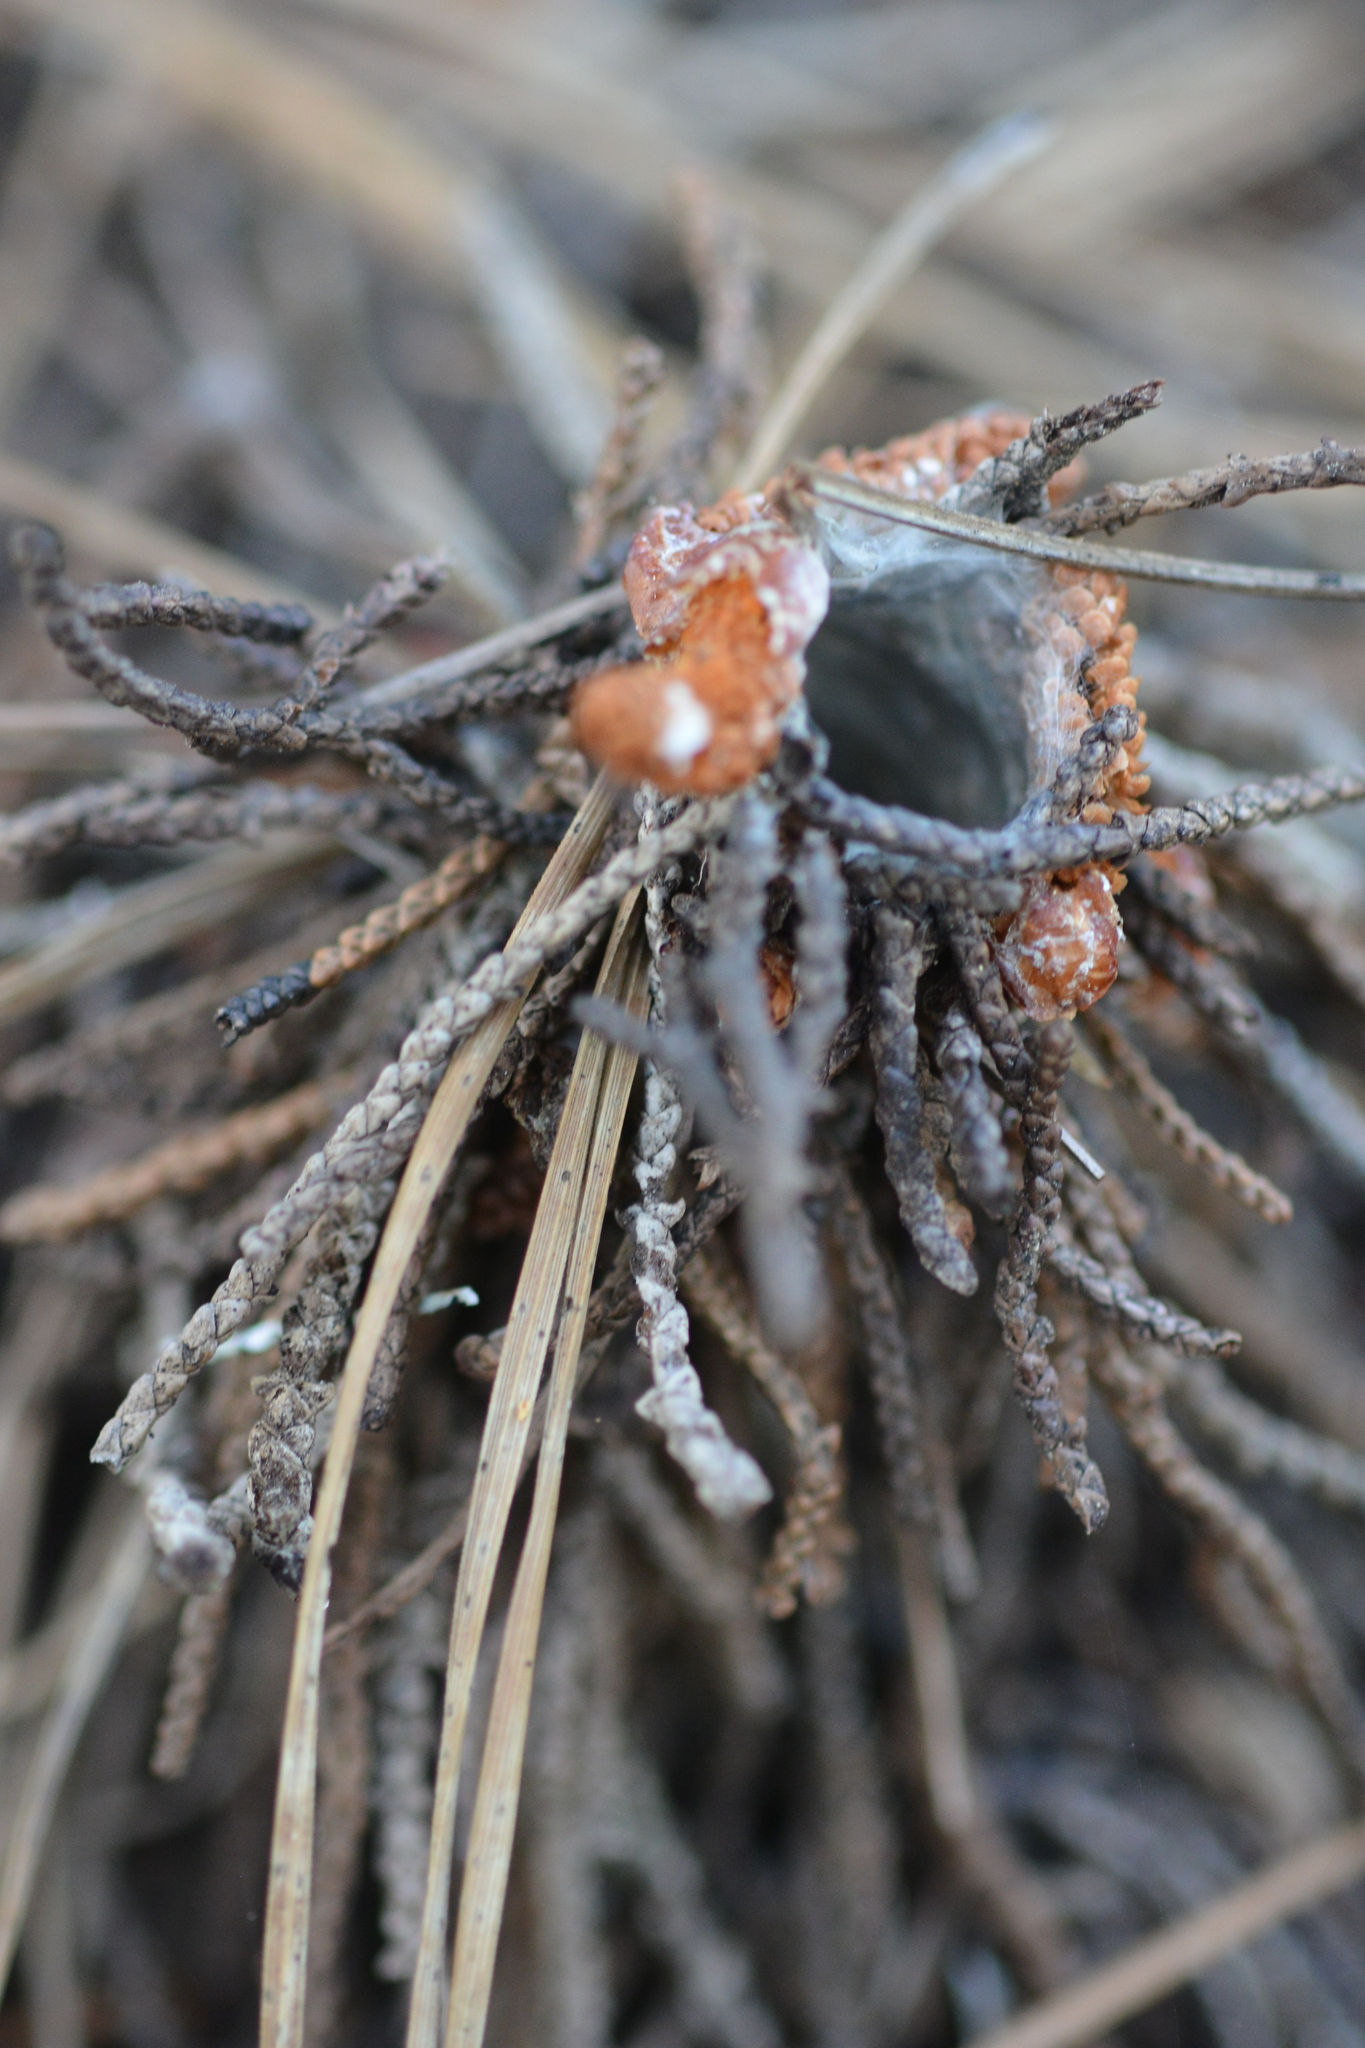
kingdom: Animalia
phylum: Arthropoda
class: Arachnida
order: Araneae
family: Antrodiaetidae
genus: Atypoides
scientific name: Atypoides riversi
